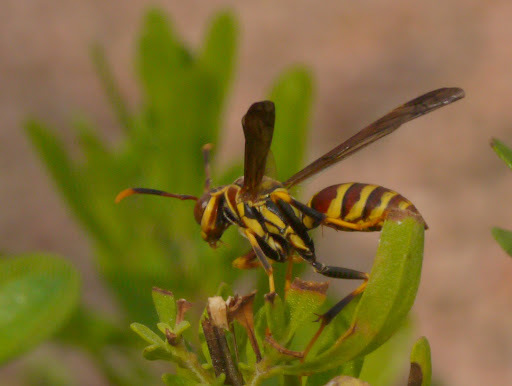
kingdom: Animalia
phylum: Arthropoda
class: Insecta
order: Hymenoptera
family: Eumenidae
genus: Polistes
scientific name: Polistes exclamans
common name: Paper wasp
